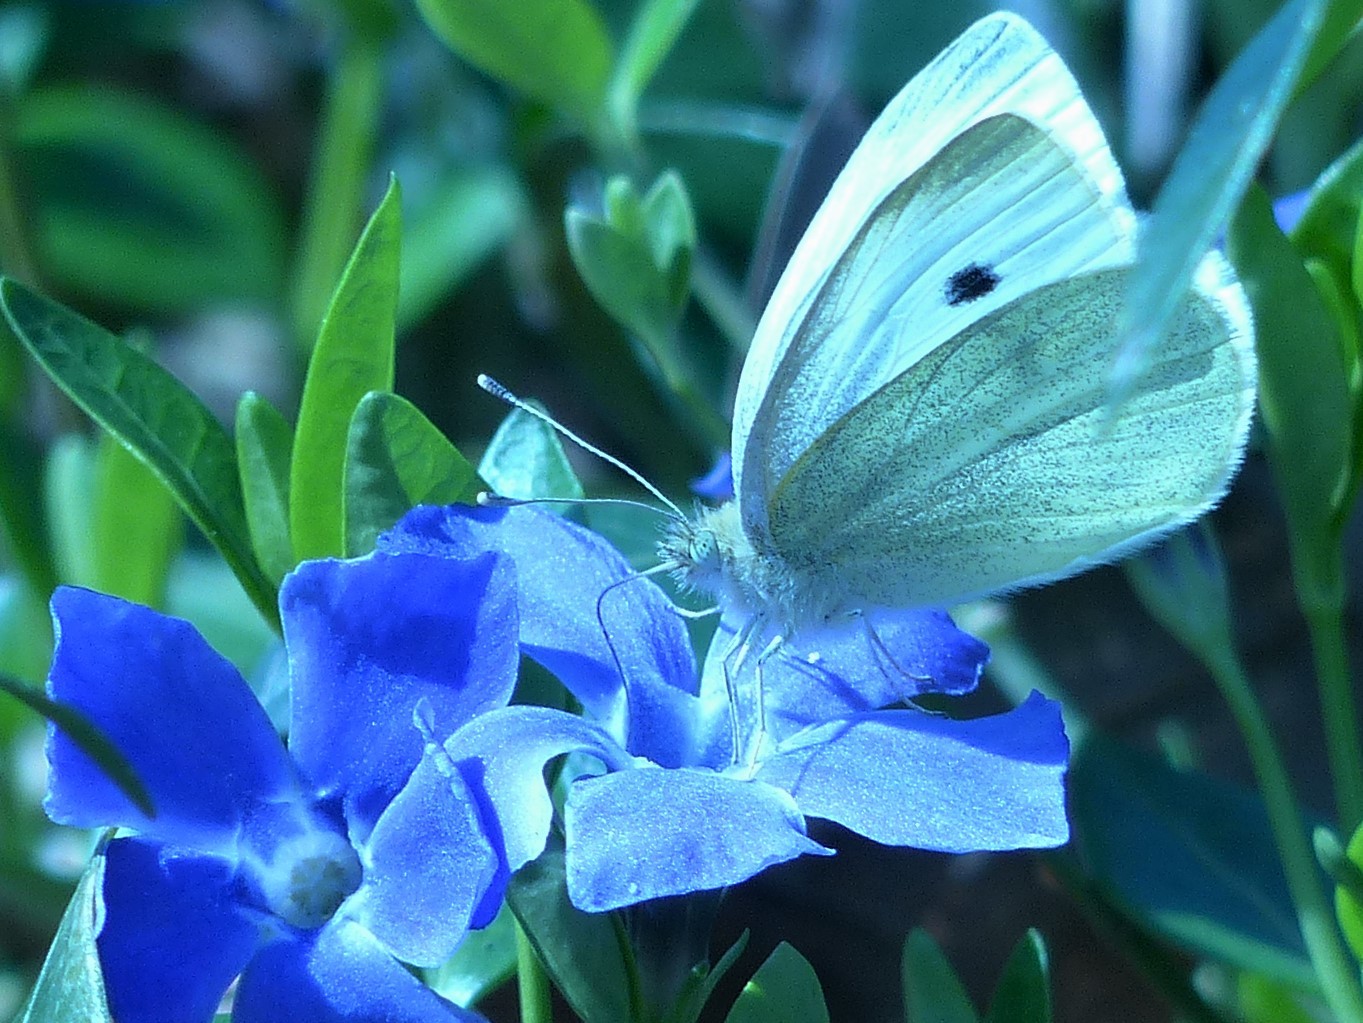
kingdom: Animalia
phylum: Arthropoda
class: Insecta
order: Lepidoptera
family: Pieridae
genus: Pieris
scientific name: Pieris rapae
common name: Small white
